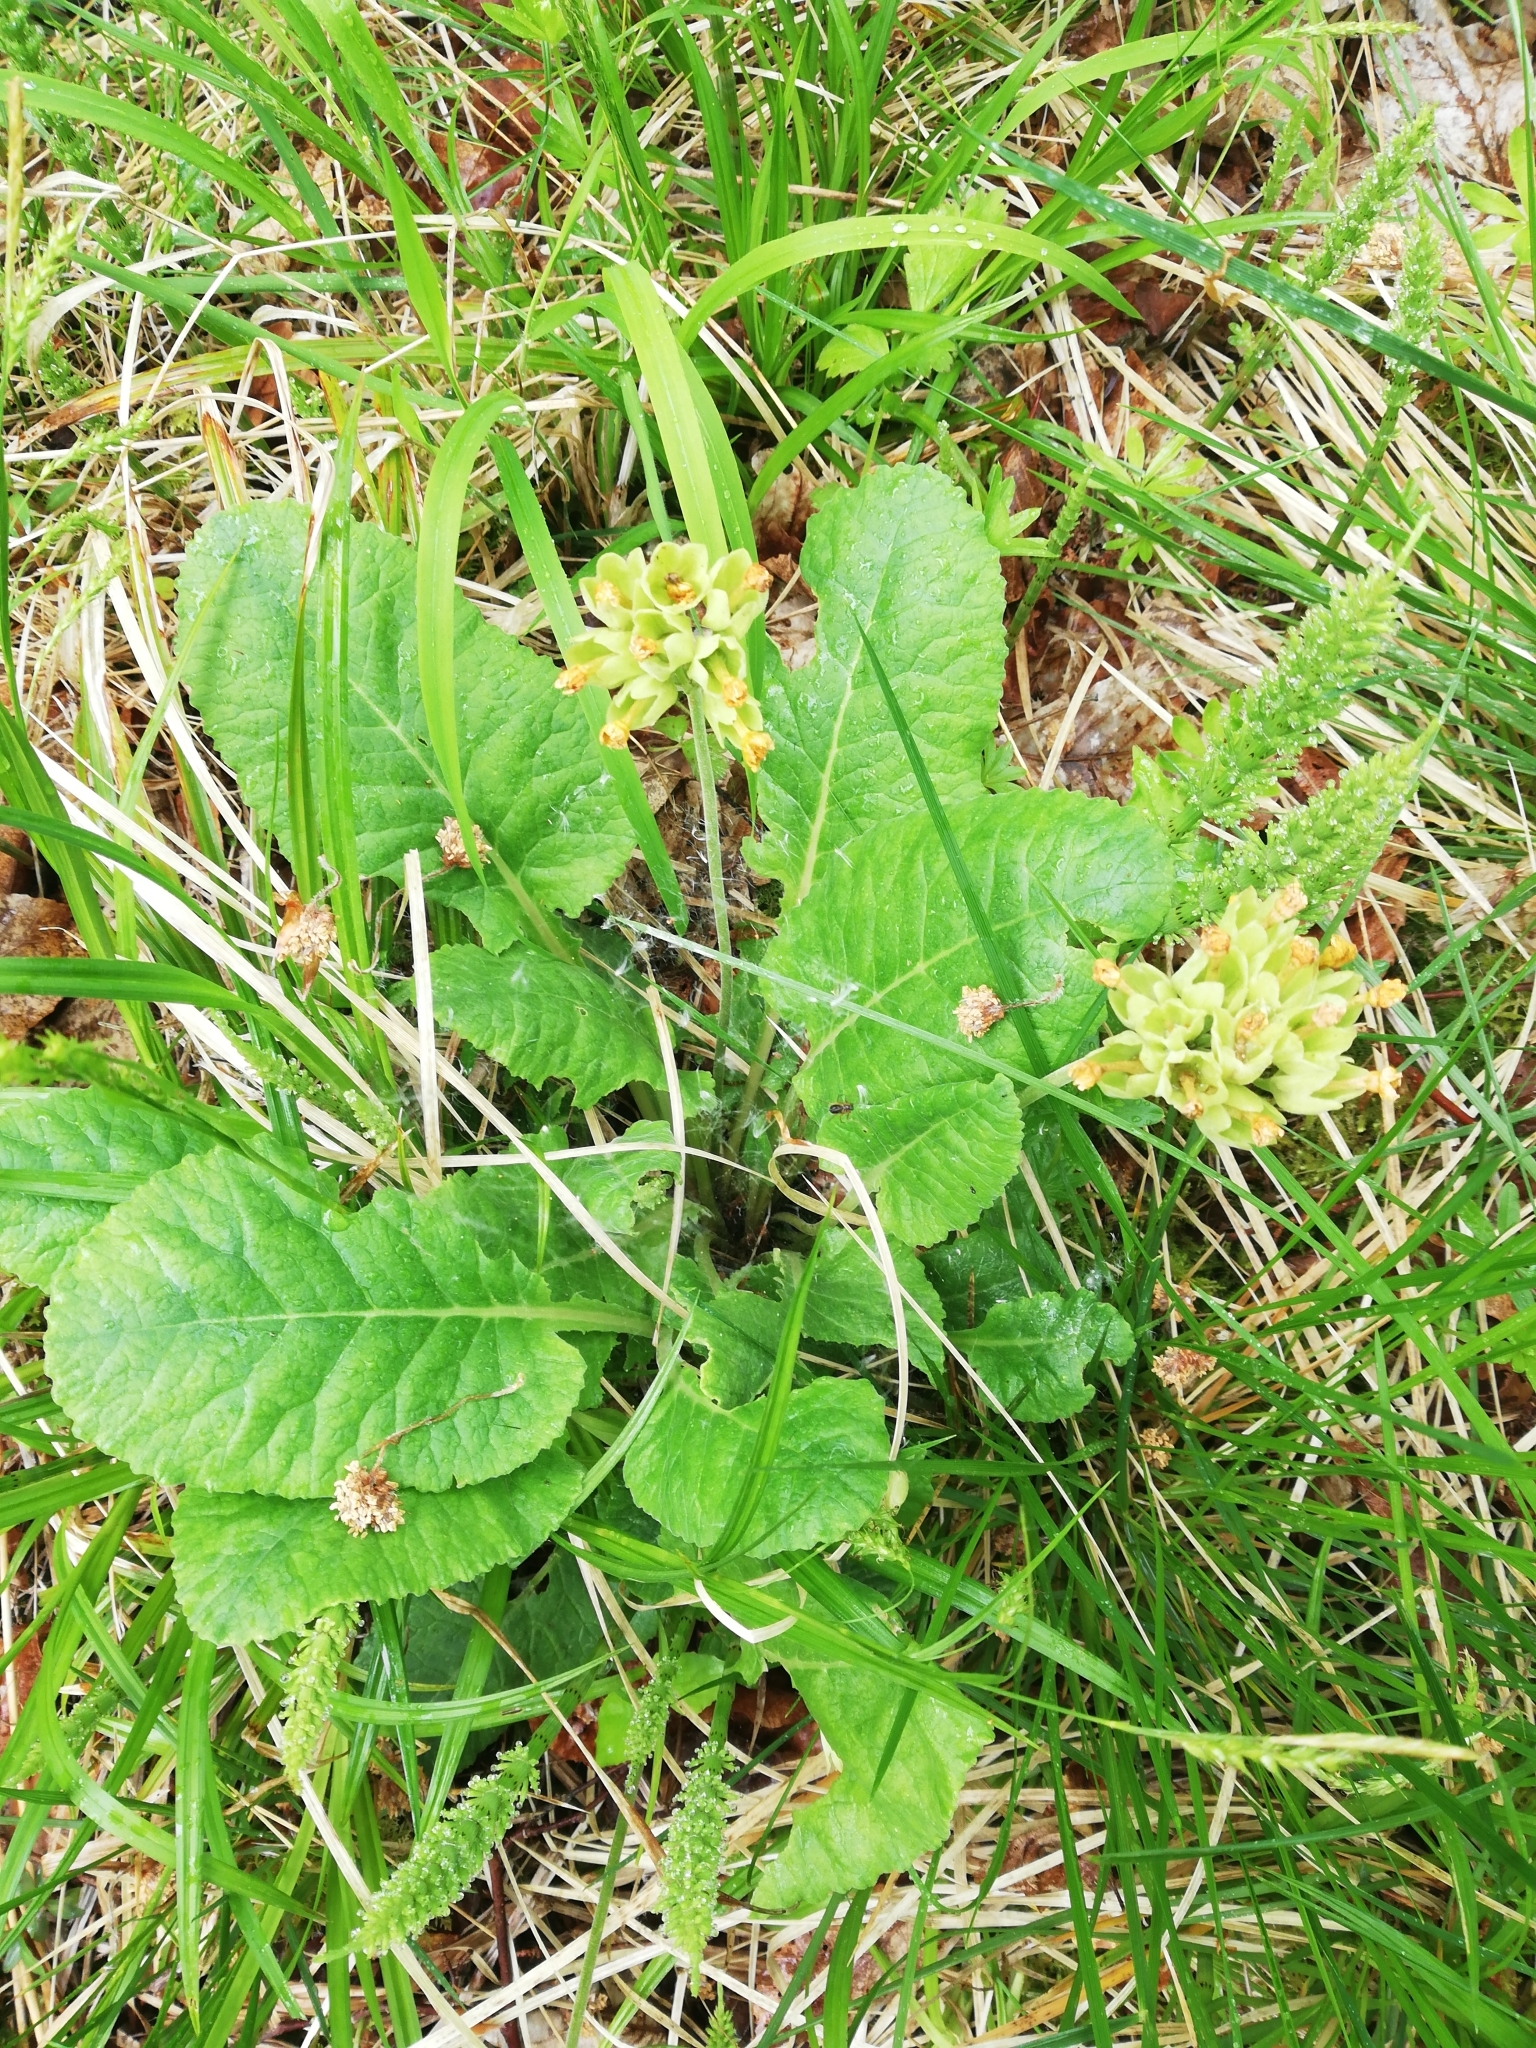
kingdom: Plantae
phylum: Tracheophyta
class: Magnoliopsida
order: Ericales
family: Primulaceae
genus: Primula
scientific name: Primula veris
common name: Cowslip
